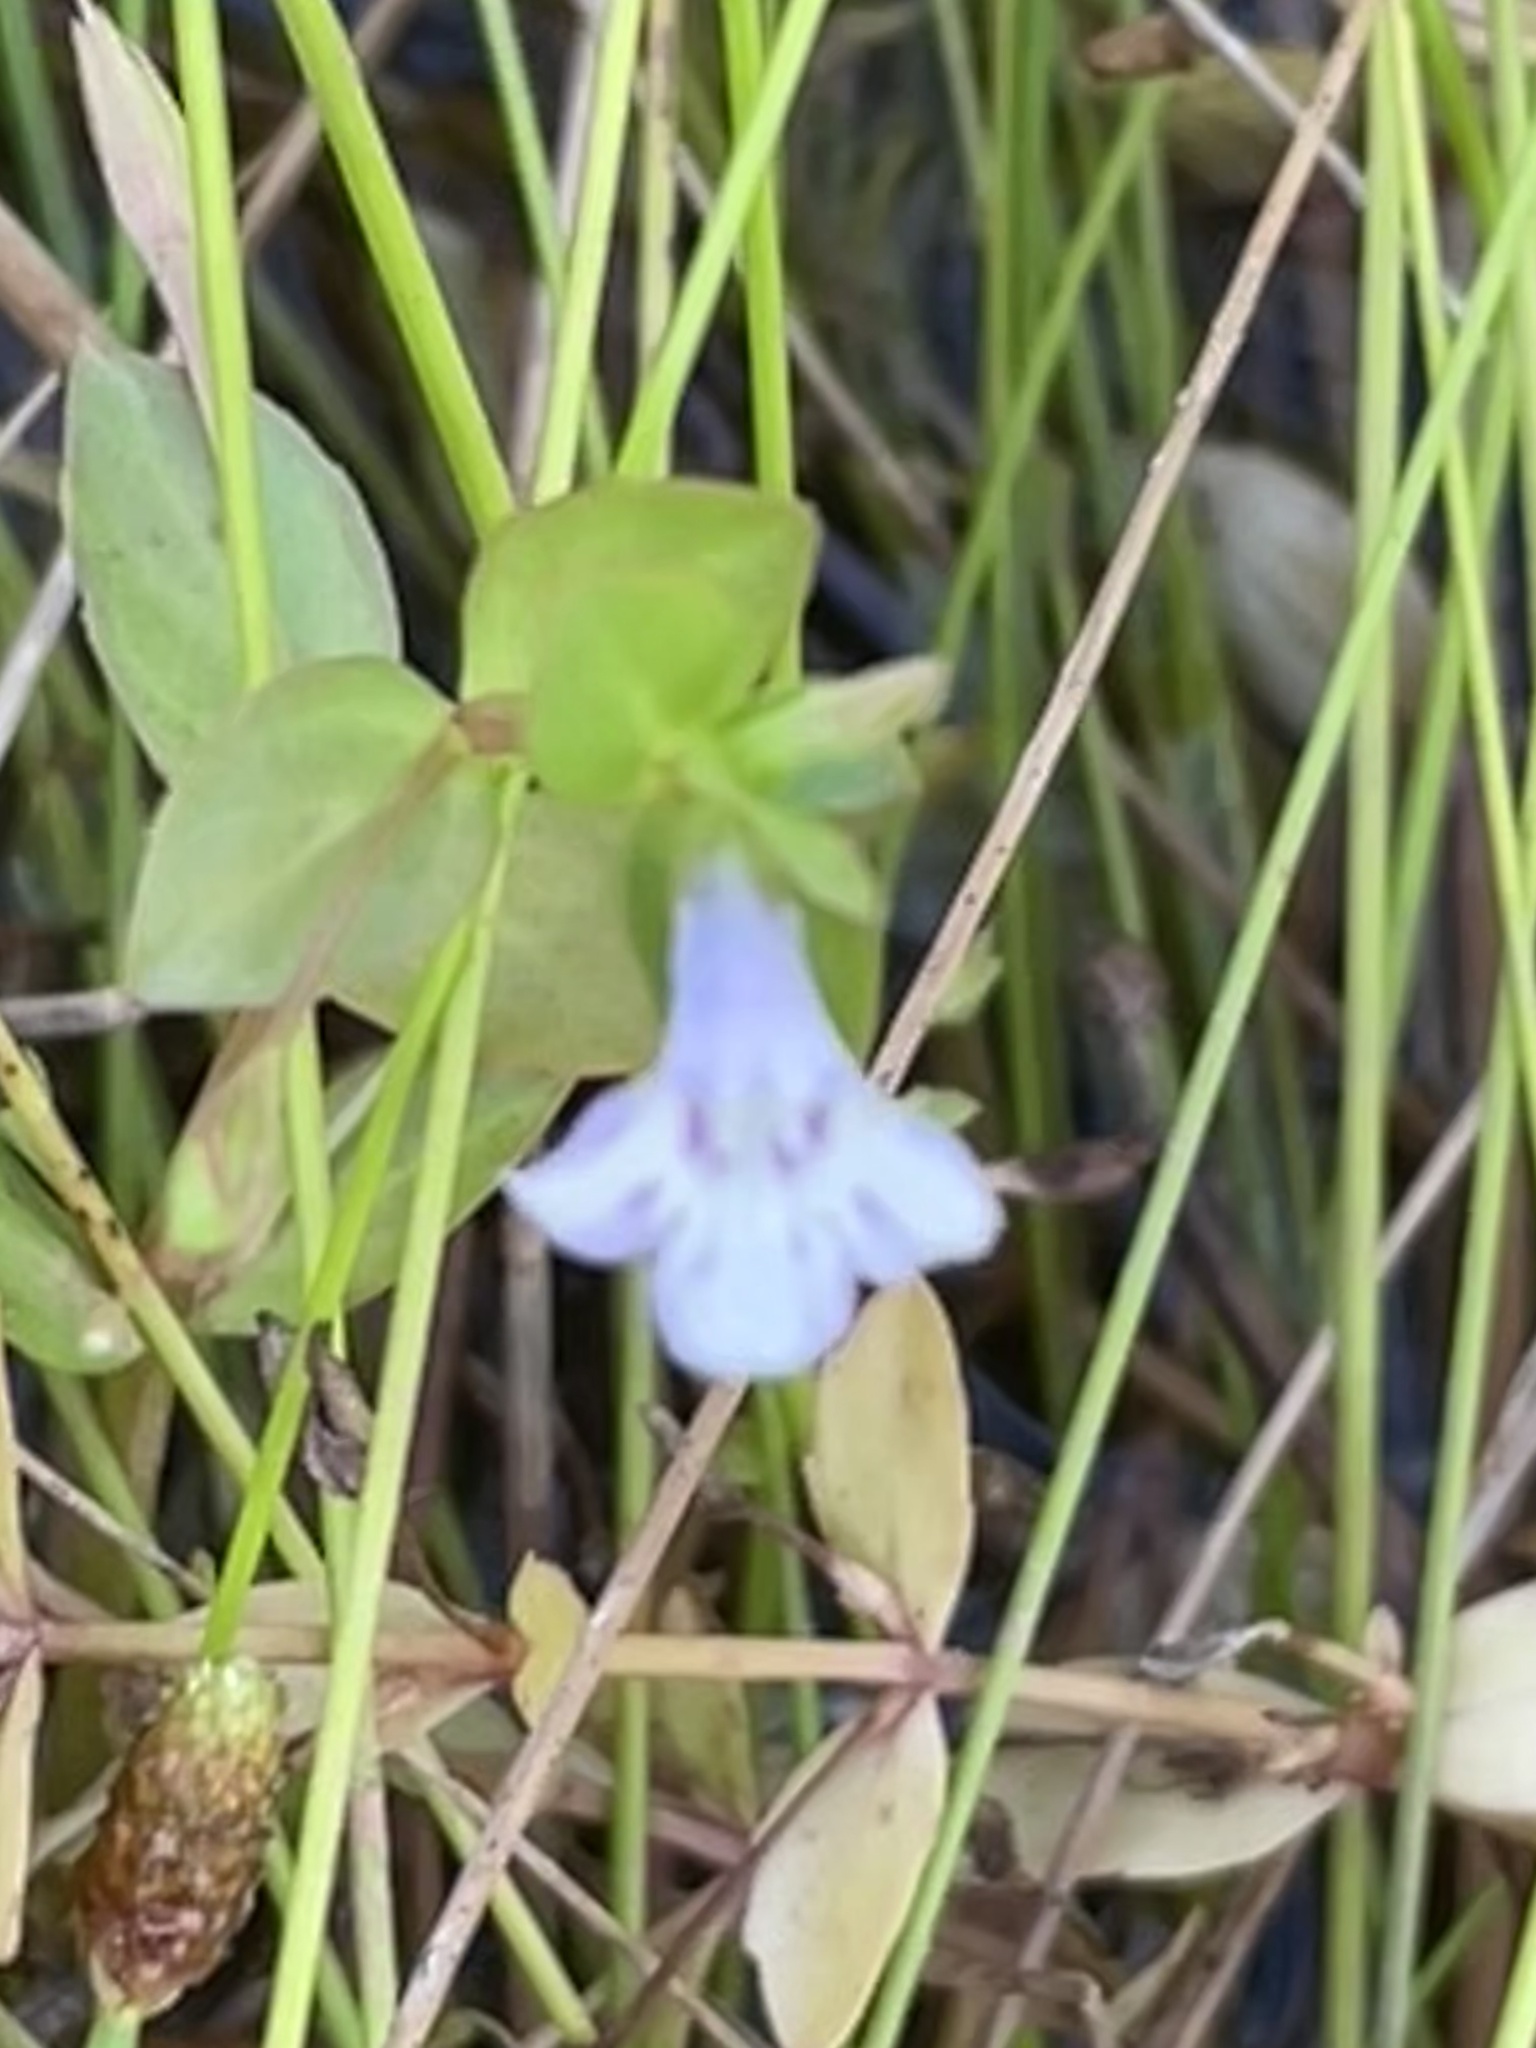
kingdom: Plantae
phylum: Tracheophyta
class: Magnoliopsida
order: Lamiales
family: Linderniaceae
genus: Lindernia
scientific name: Lindernia dubia
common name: Annual false pimpernel
